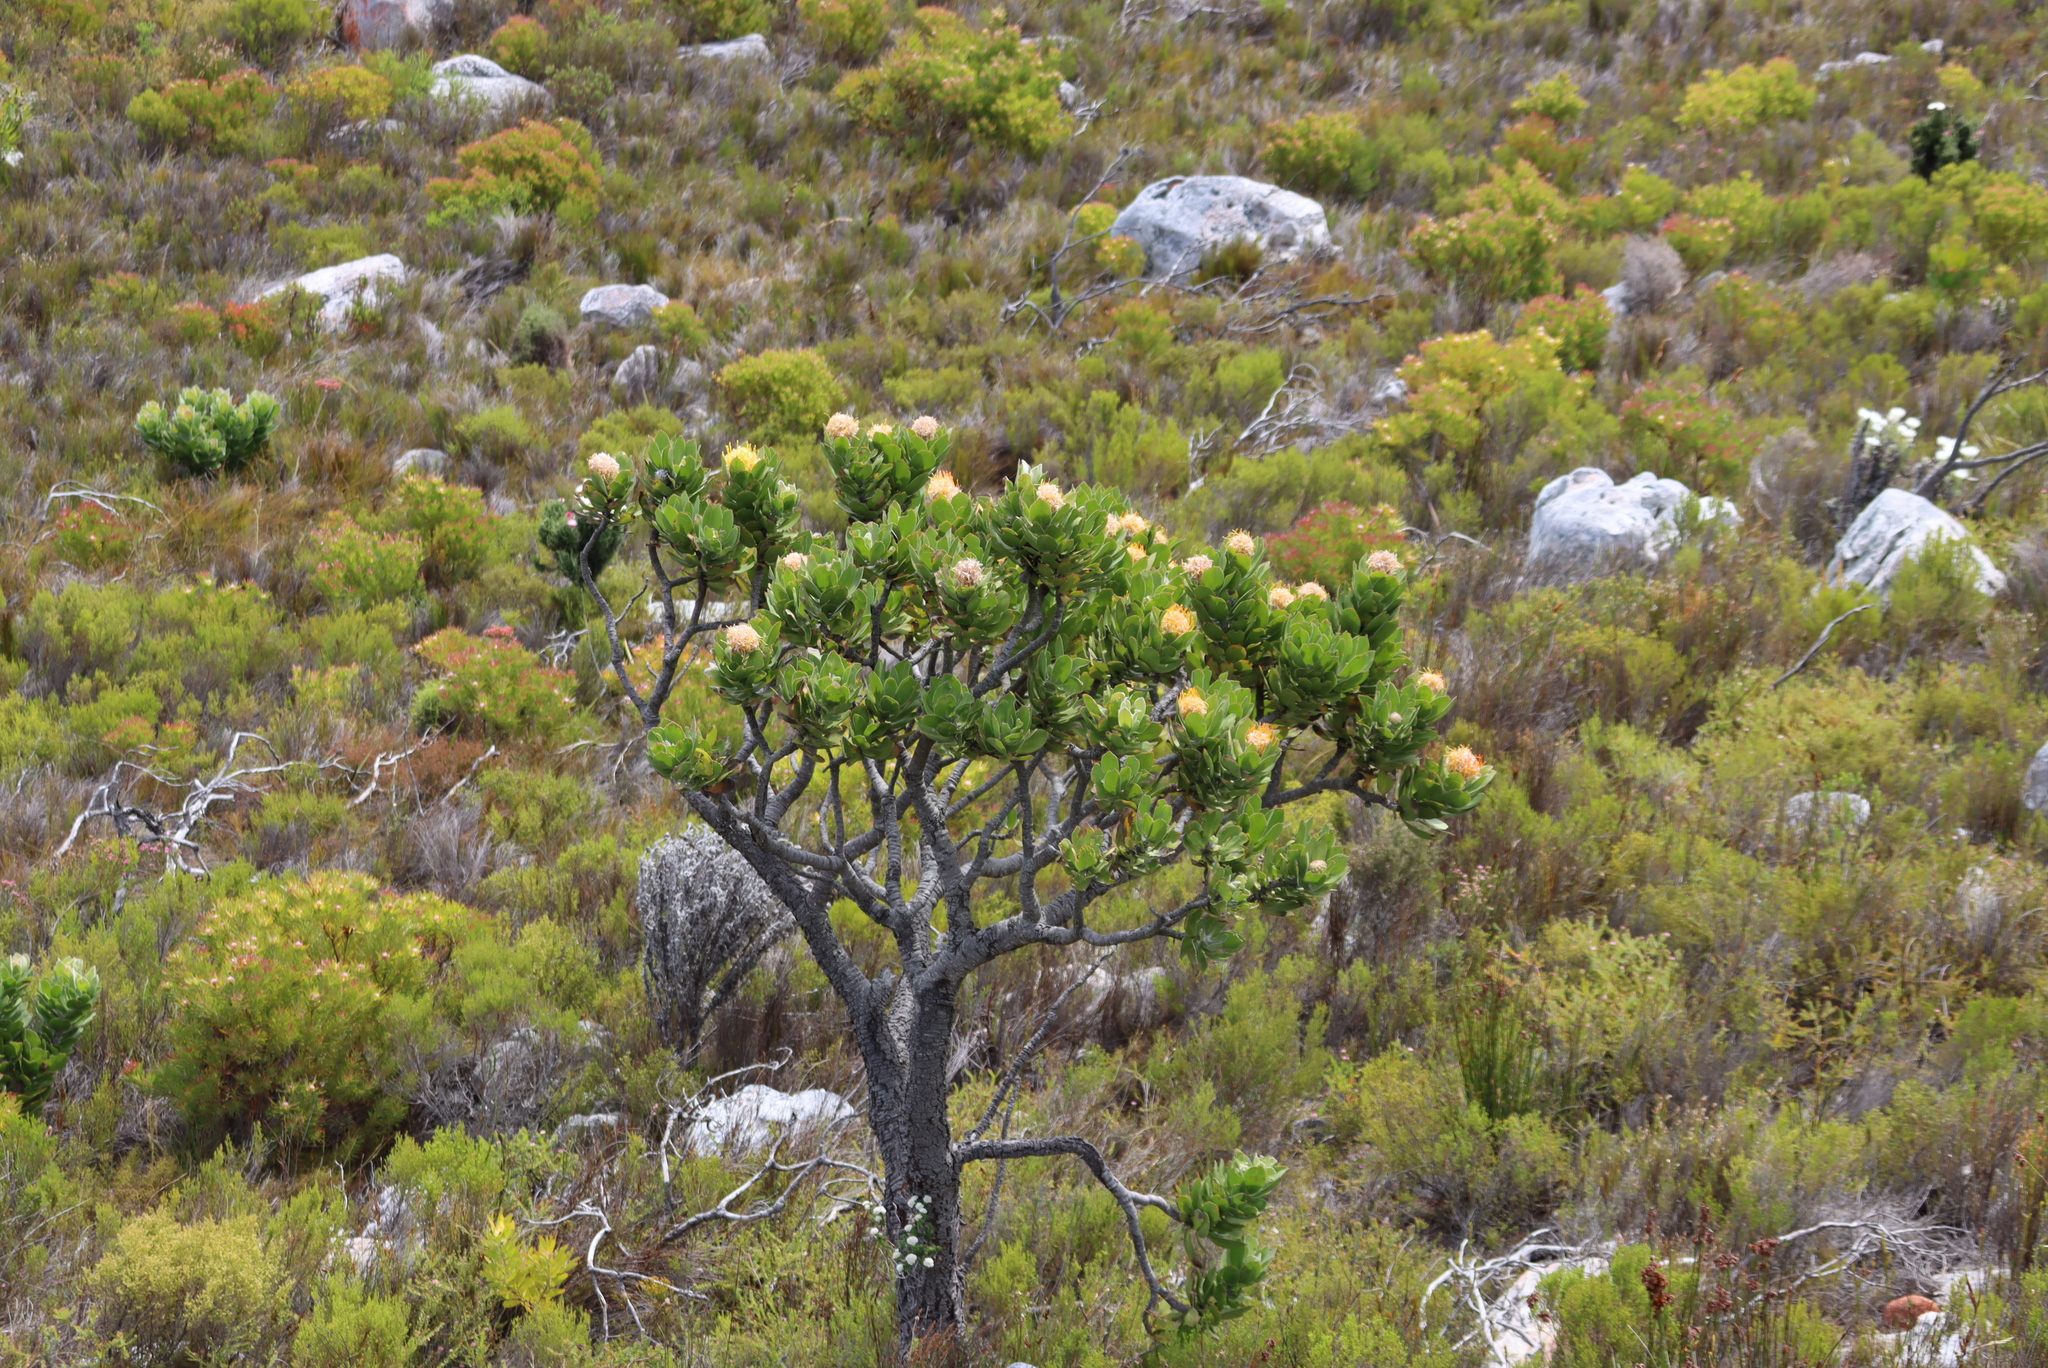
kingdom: Plantae
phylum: Tracheophyta
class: Magnoliopsida
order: Proteales
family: Proteaceae
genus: Leucospermum
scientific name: Leucospermum conocarpodendron
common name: Tree pincushion
